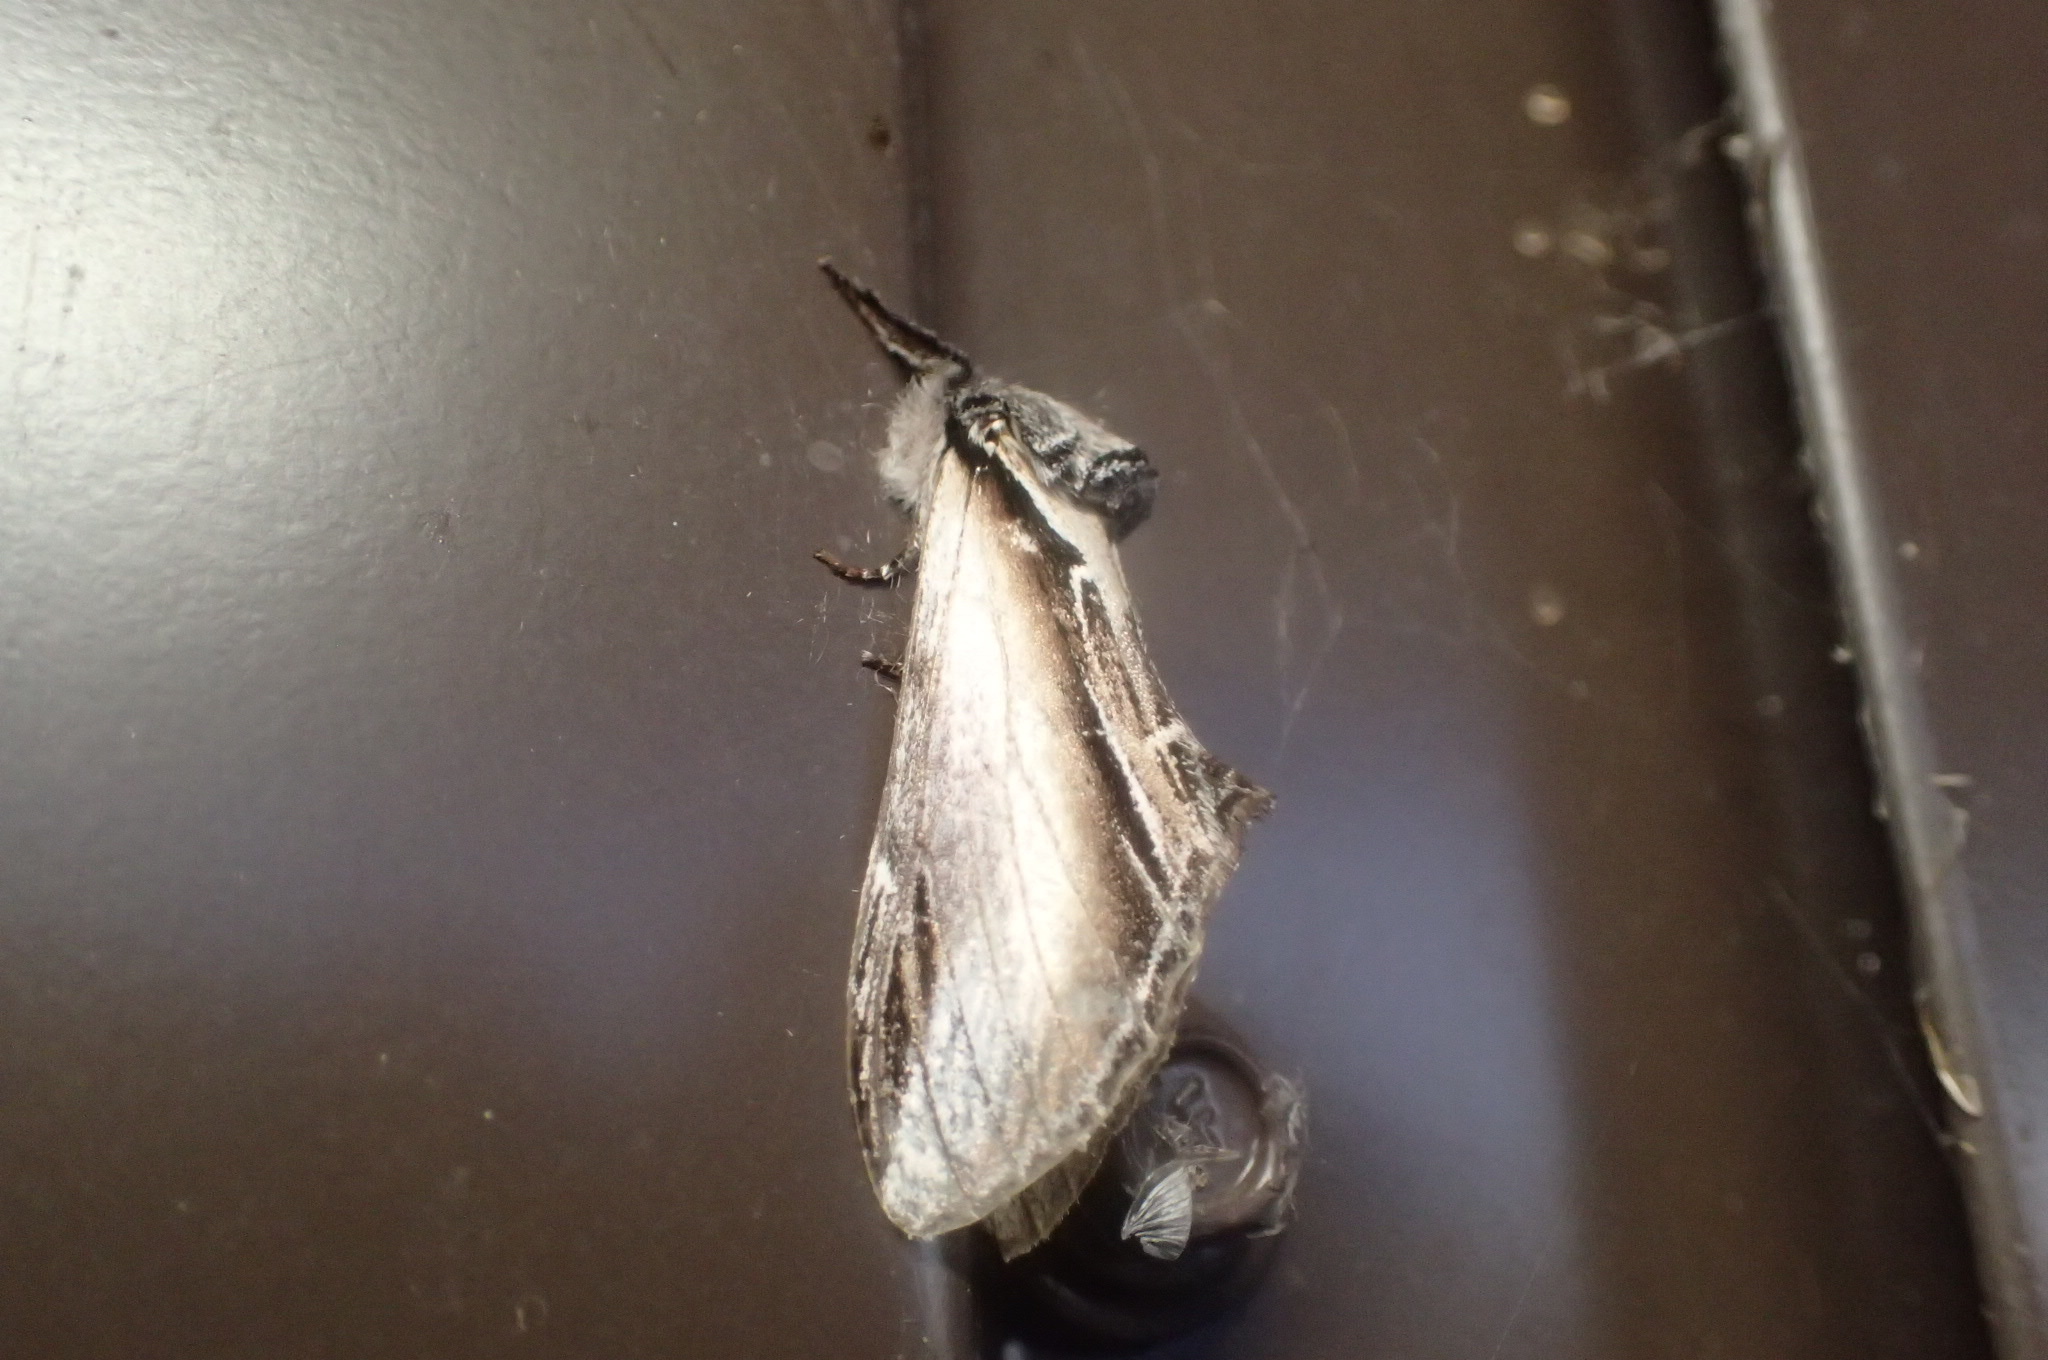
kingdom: Animalia
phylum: Arthropoda
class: Insecta
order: Lepidoptera
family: Notodontidae
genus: Pheosia
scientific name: Pheosia rimosa
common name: Black-rimmed prominent
